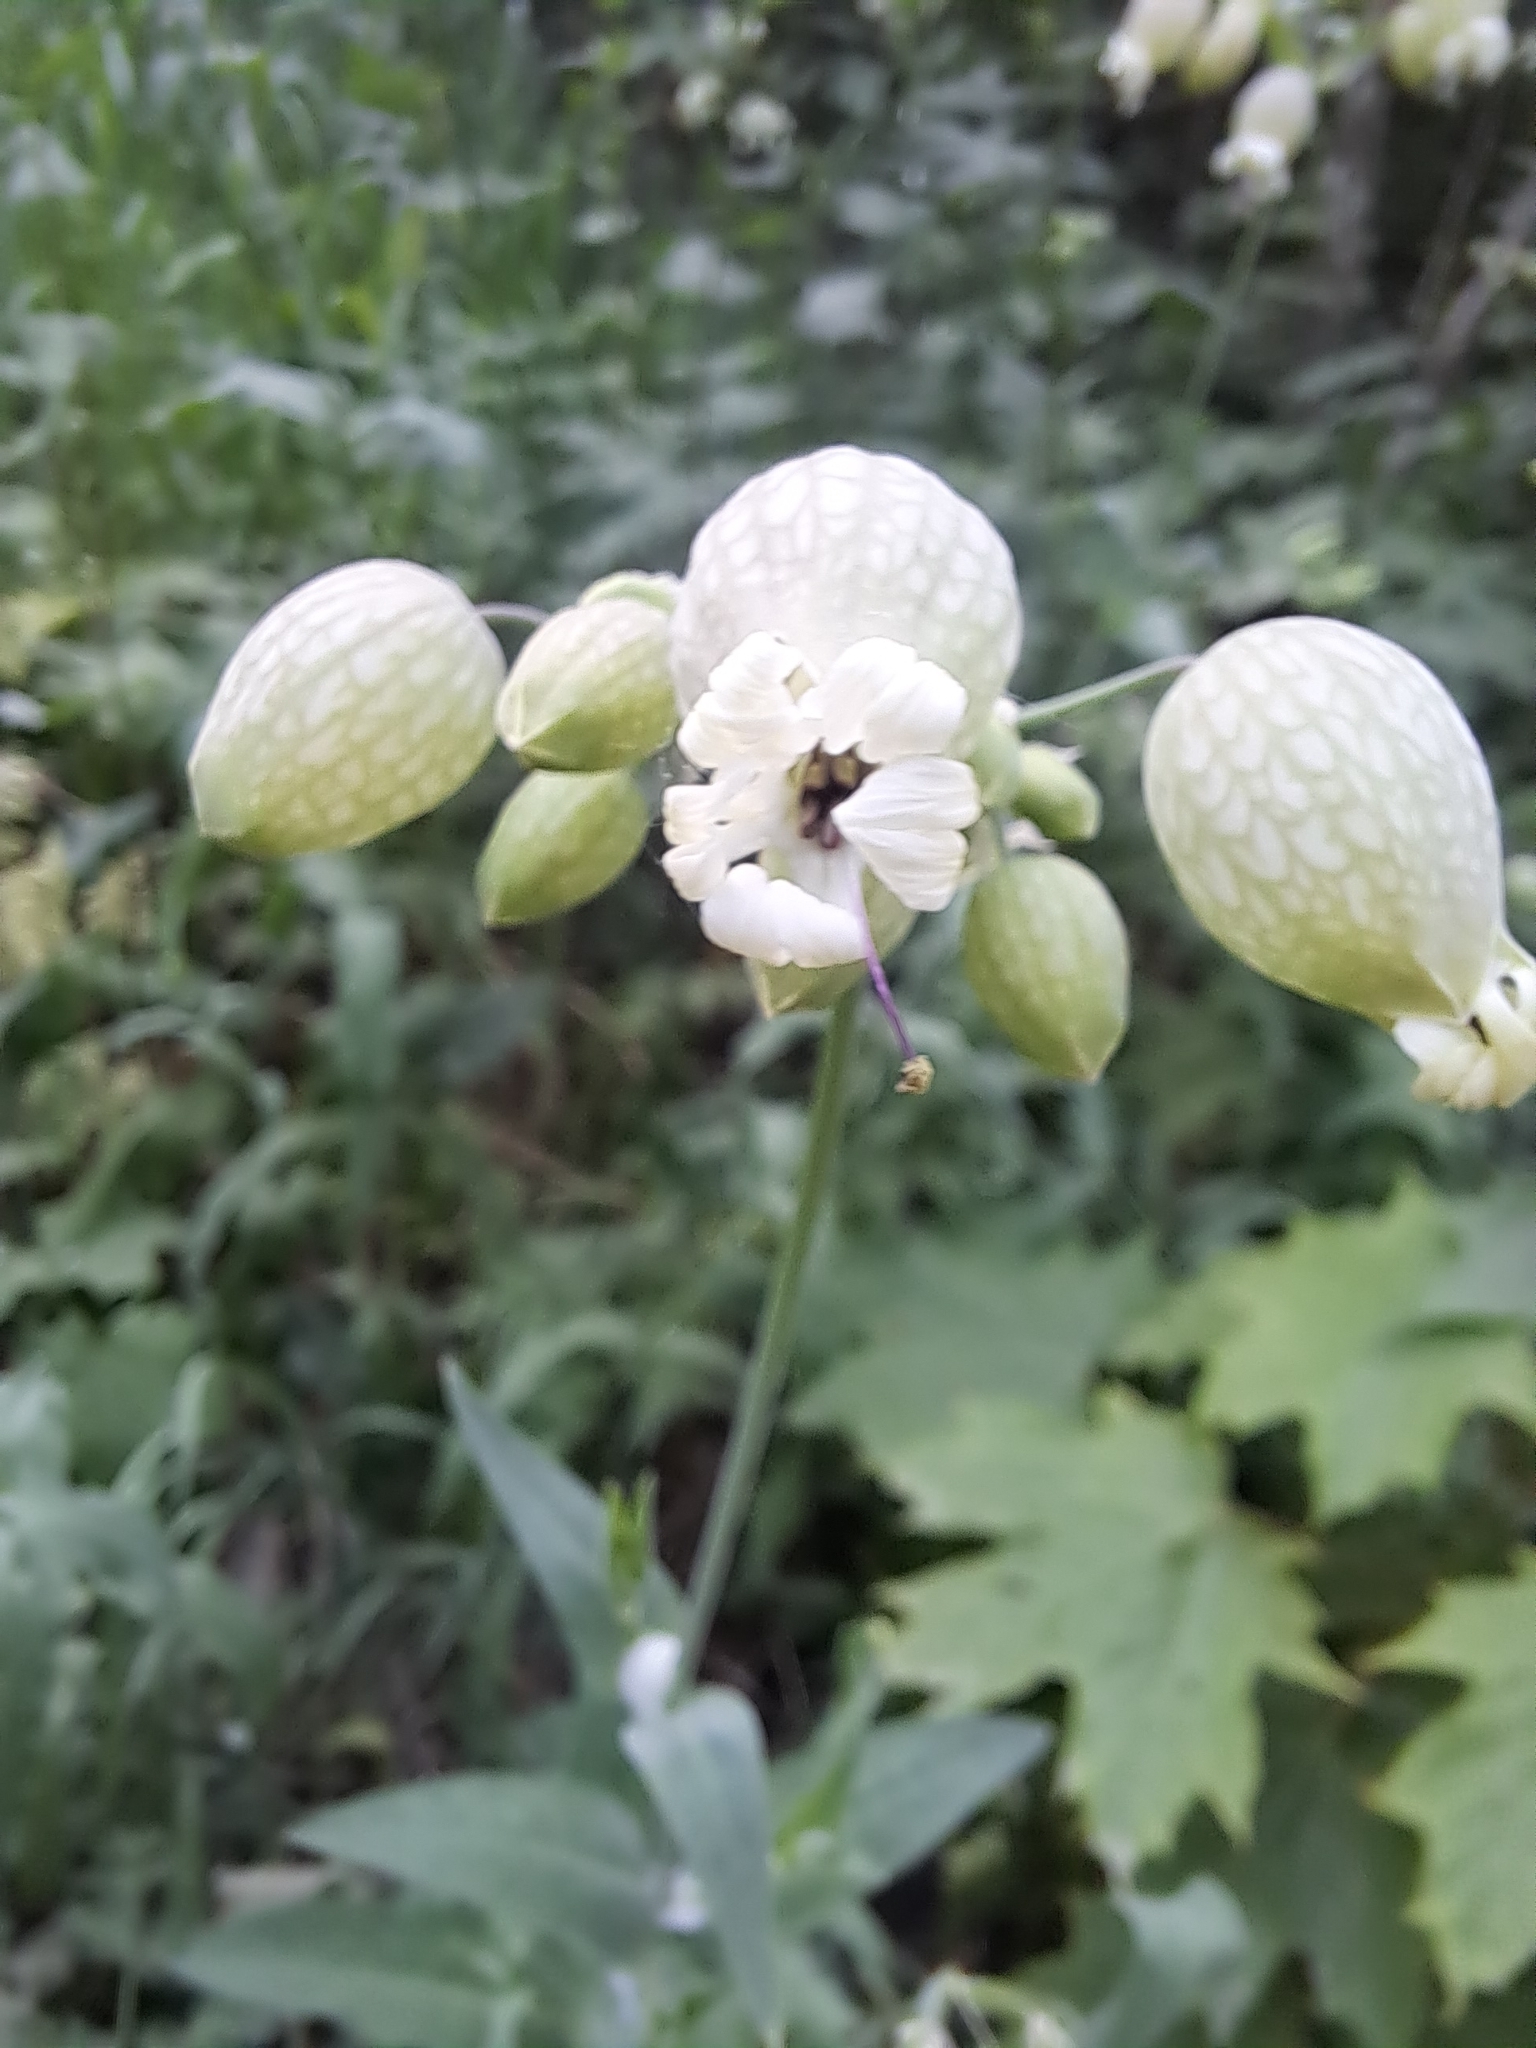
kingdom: Plantae
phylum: Tracheophyta
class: Magnoliopsida
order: Caryophyllales
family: Caryophyllaceae
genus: Silene
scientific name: Silene vulgaris
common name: Bladder campion
